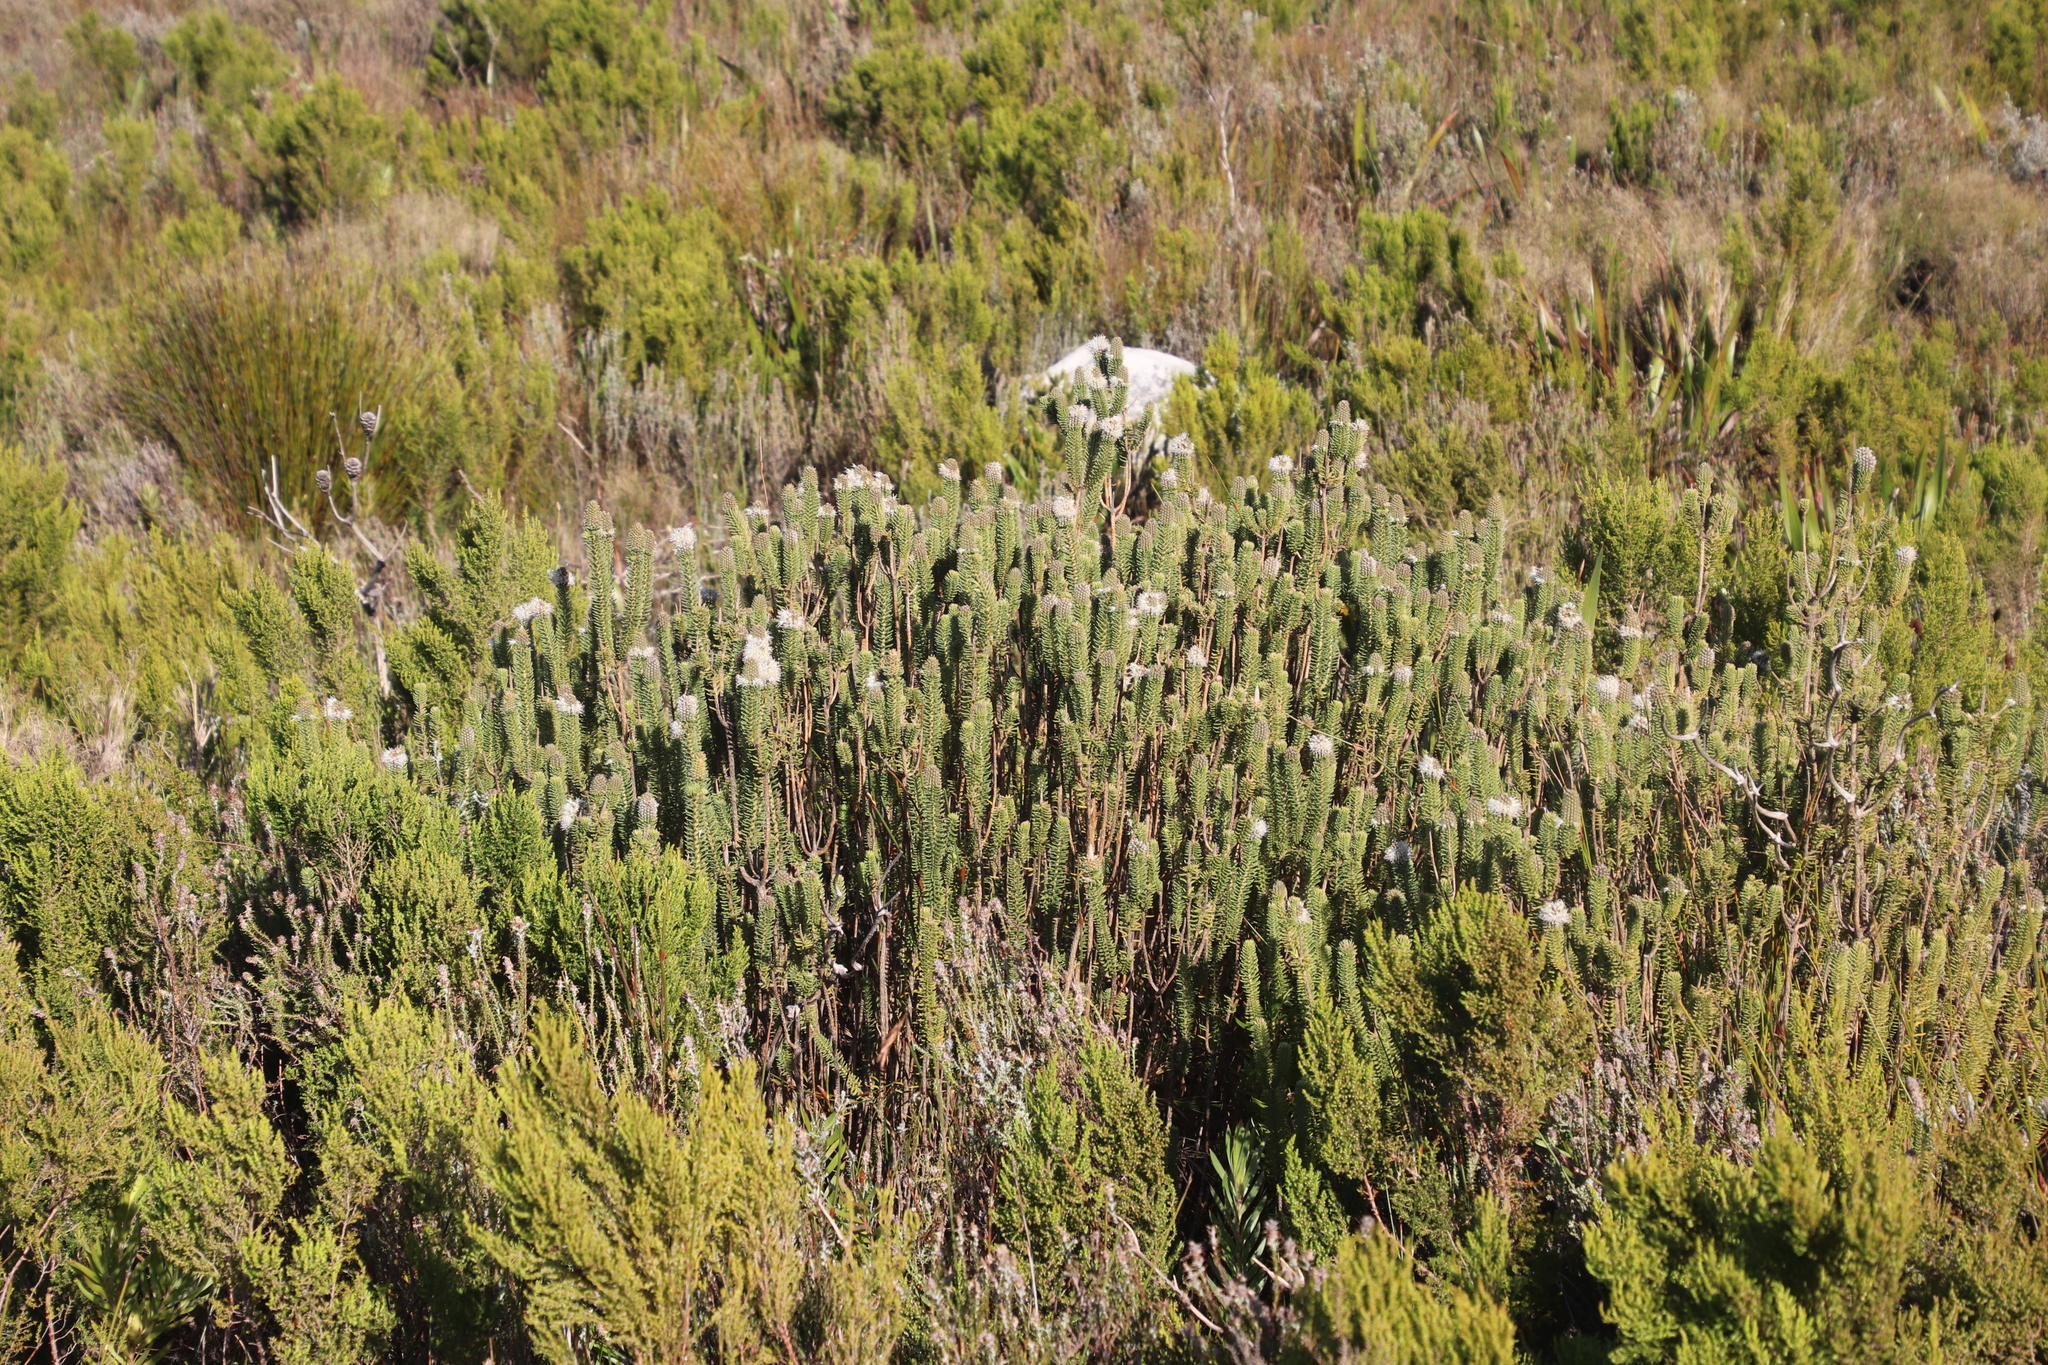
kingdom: Plantae
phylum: Tracheophyta
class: Magnoliopsida
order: Lamiales
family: Stilbaceae
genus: Stilbe
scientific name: Stilbe vestita
